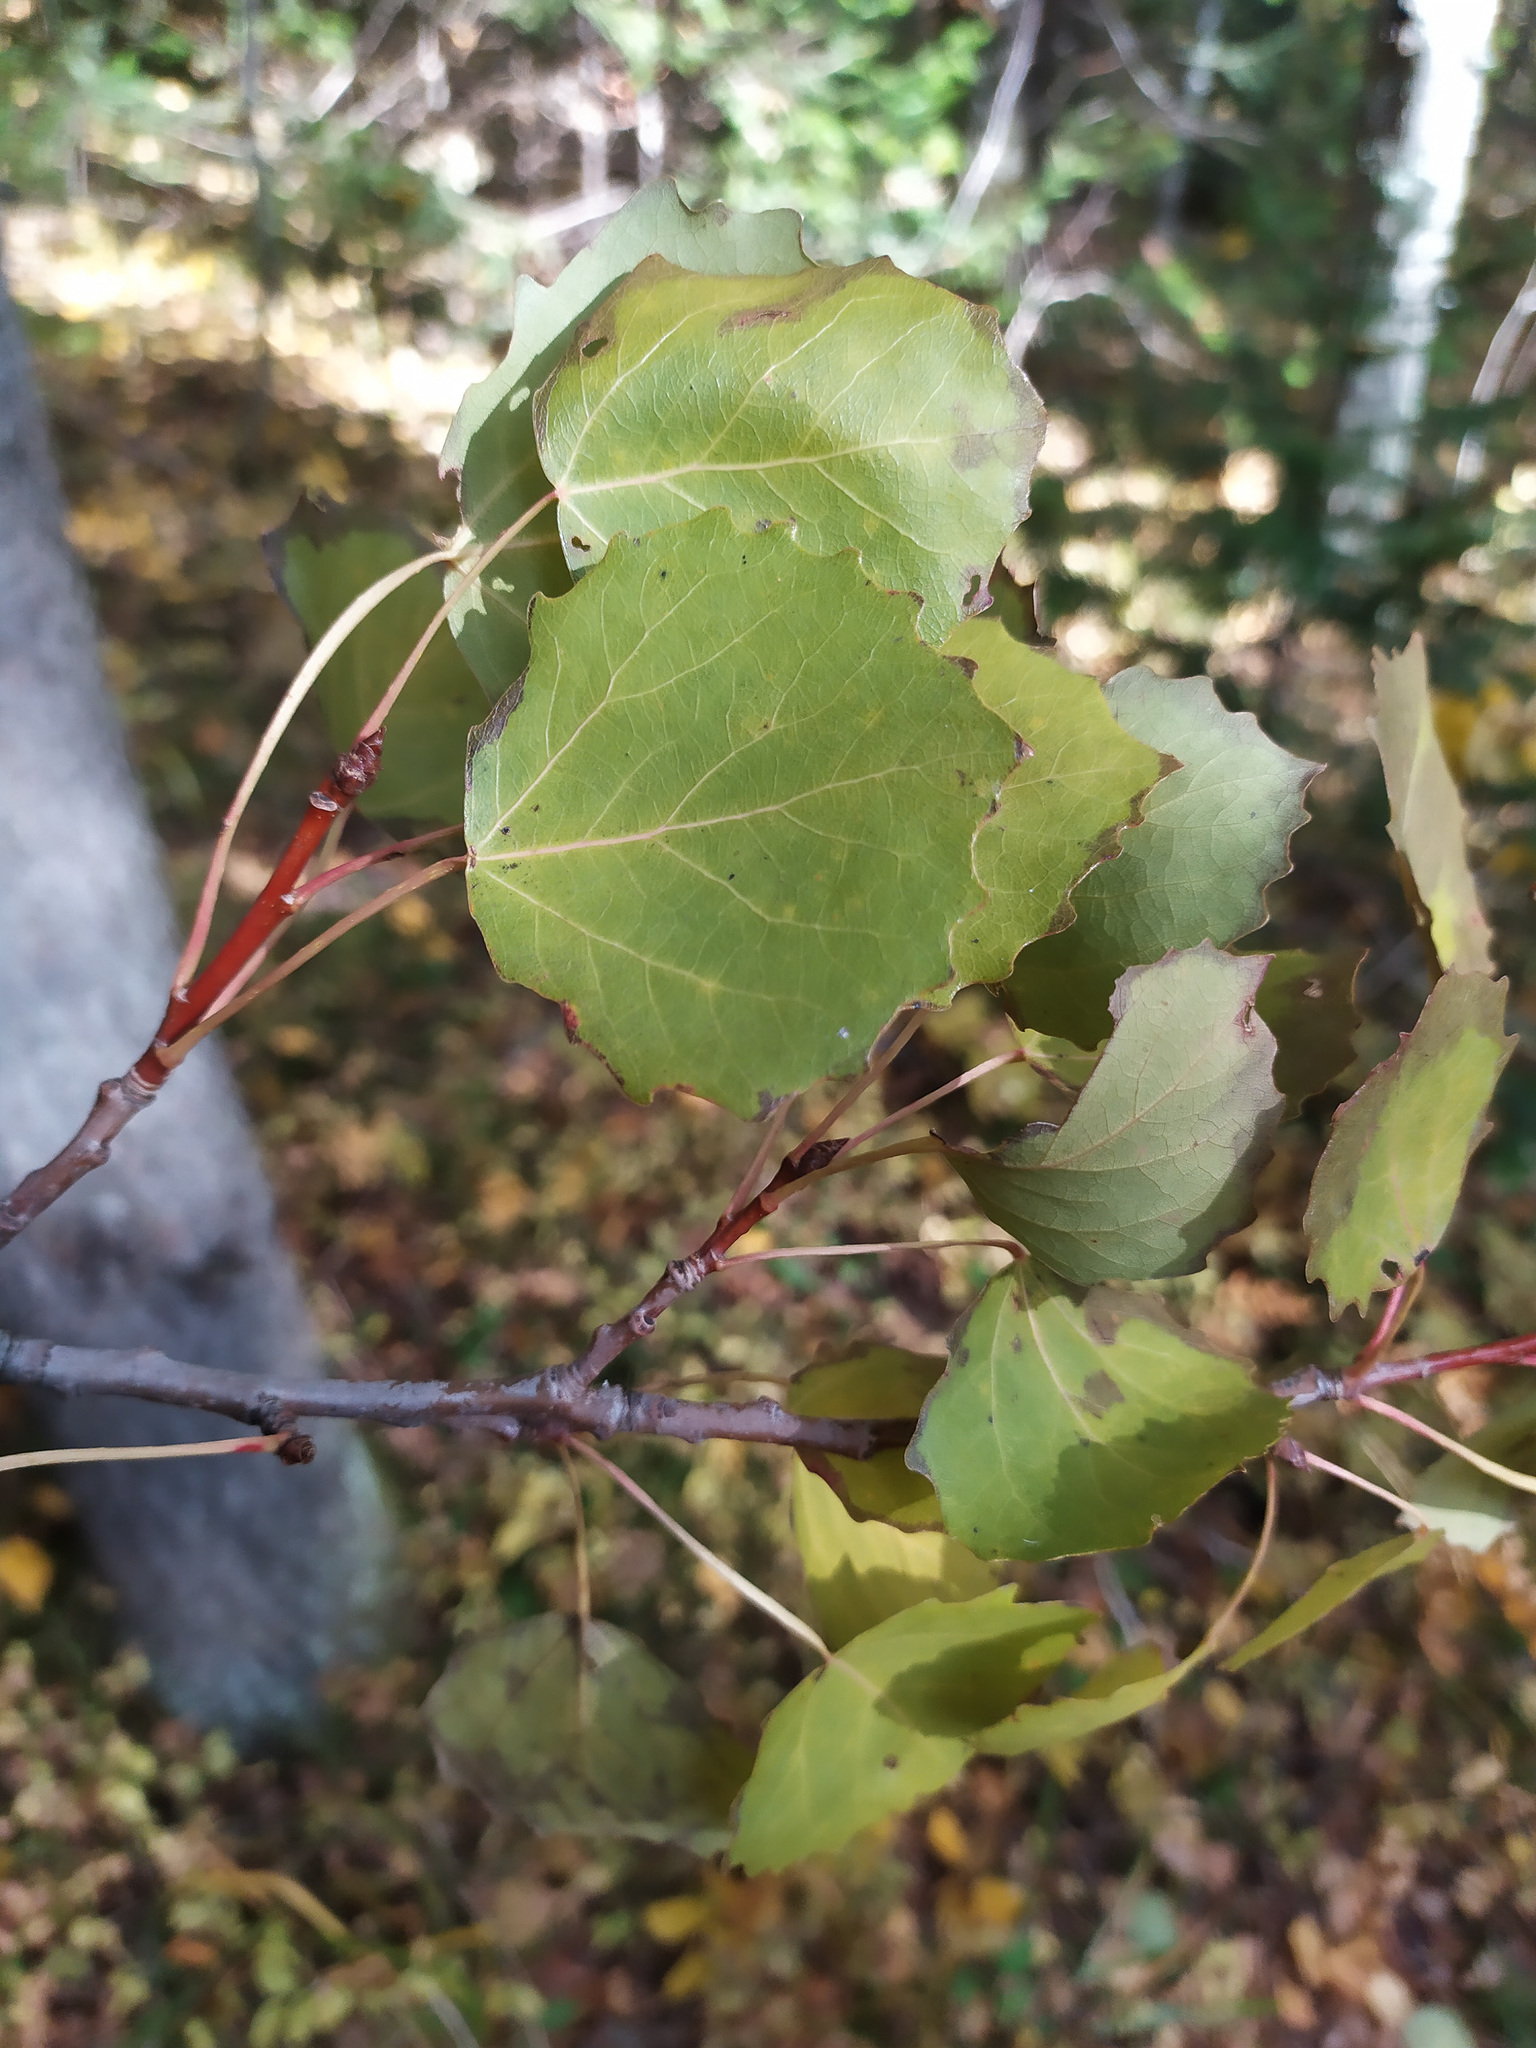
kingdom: Plantae
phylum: Tracheophyta
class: Magnoliopsida
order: Malpighiales
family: Salicaceae
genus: Populus
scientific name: Populus tremula
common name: European aspen
